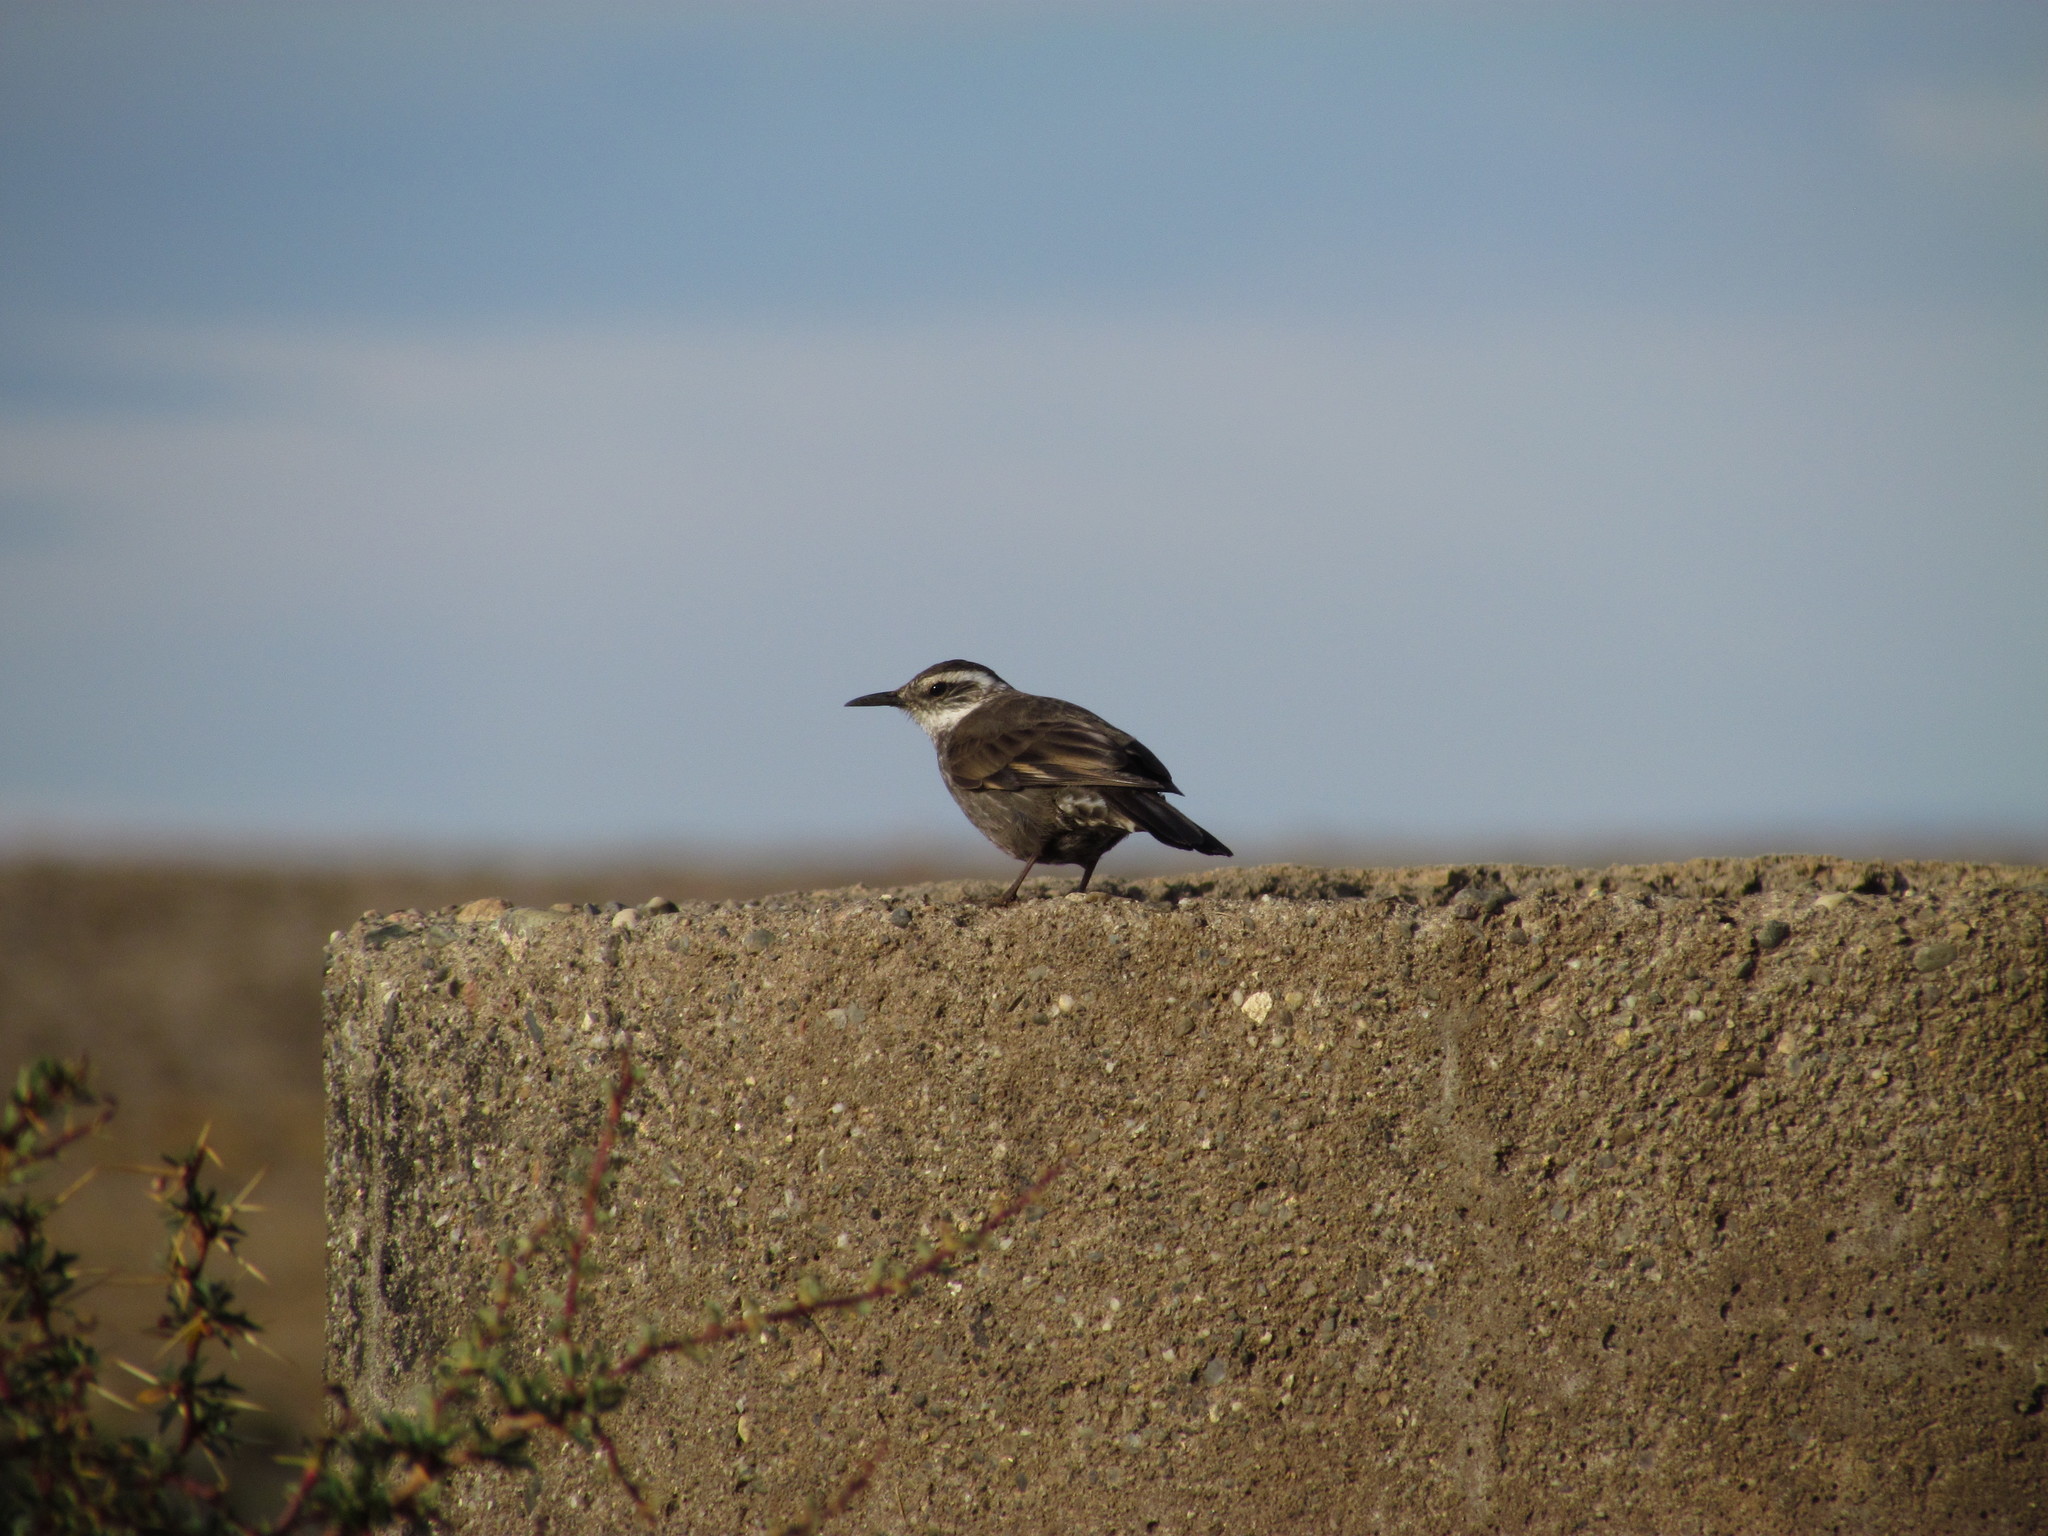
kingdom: Animalia
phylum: Chordata
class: Aves
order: Passeriformes
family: Furnariidae
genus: Cinclodes
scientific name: Cinclodes patagonicus
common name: Dark-bellied cinclodes
